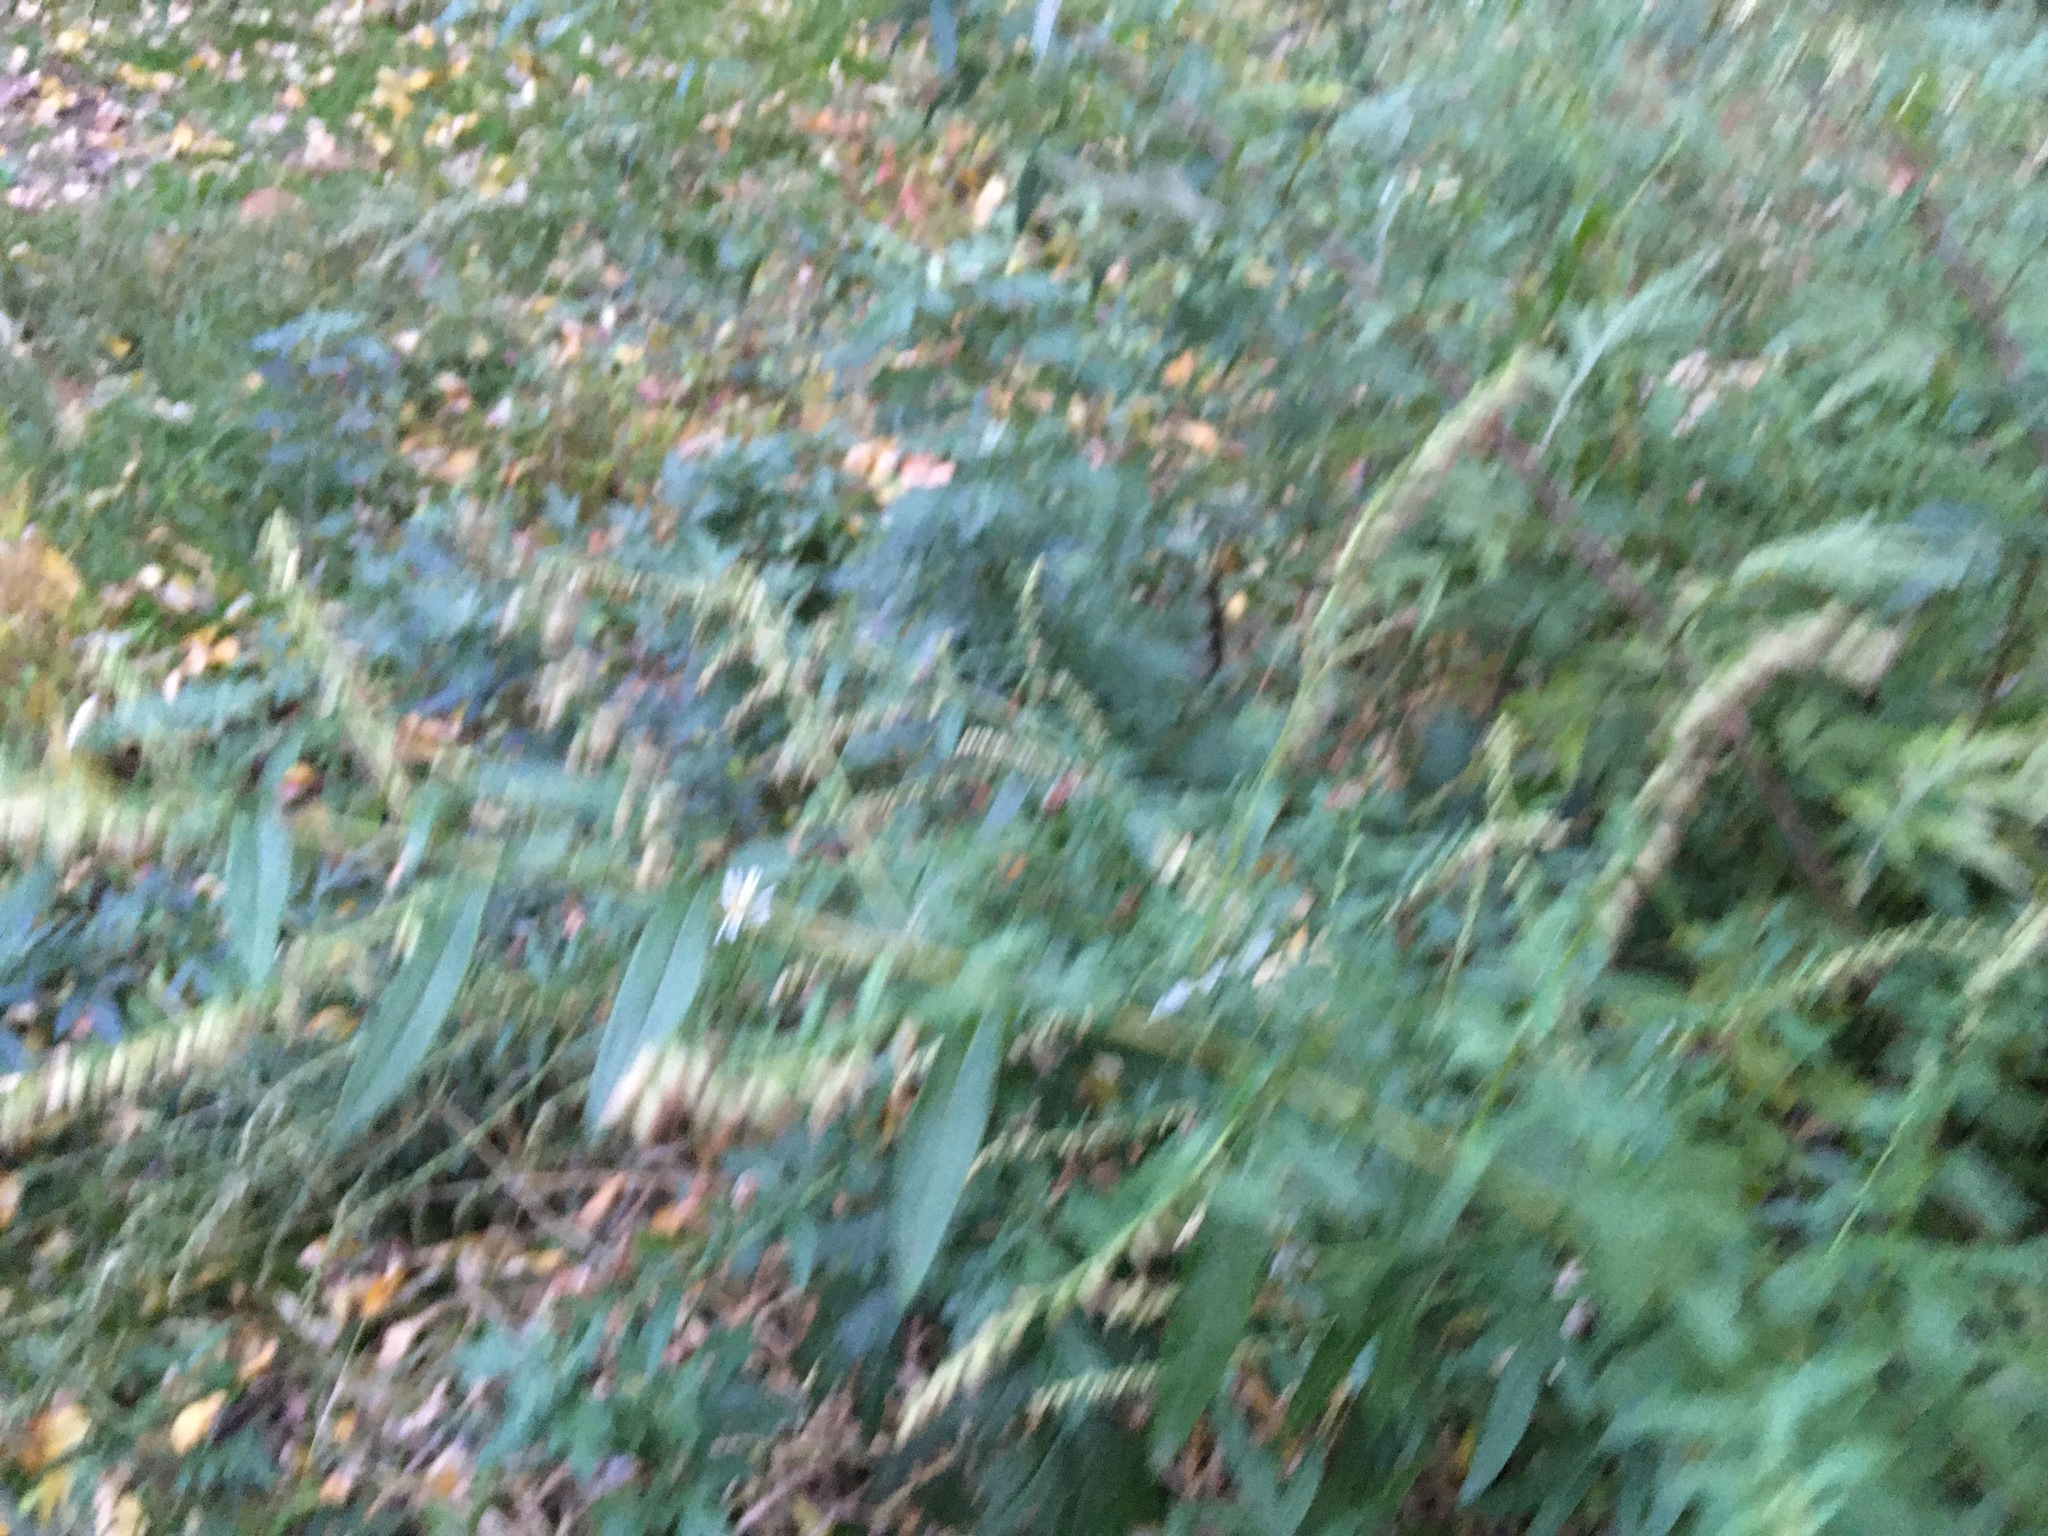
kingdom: Plantae
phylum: Tracheophyta
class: Magnoliopsida
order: Asterales
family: Asteraceae
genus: Artemisia
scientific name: Artemisia vulgaris
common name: Mugwort
